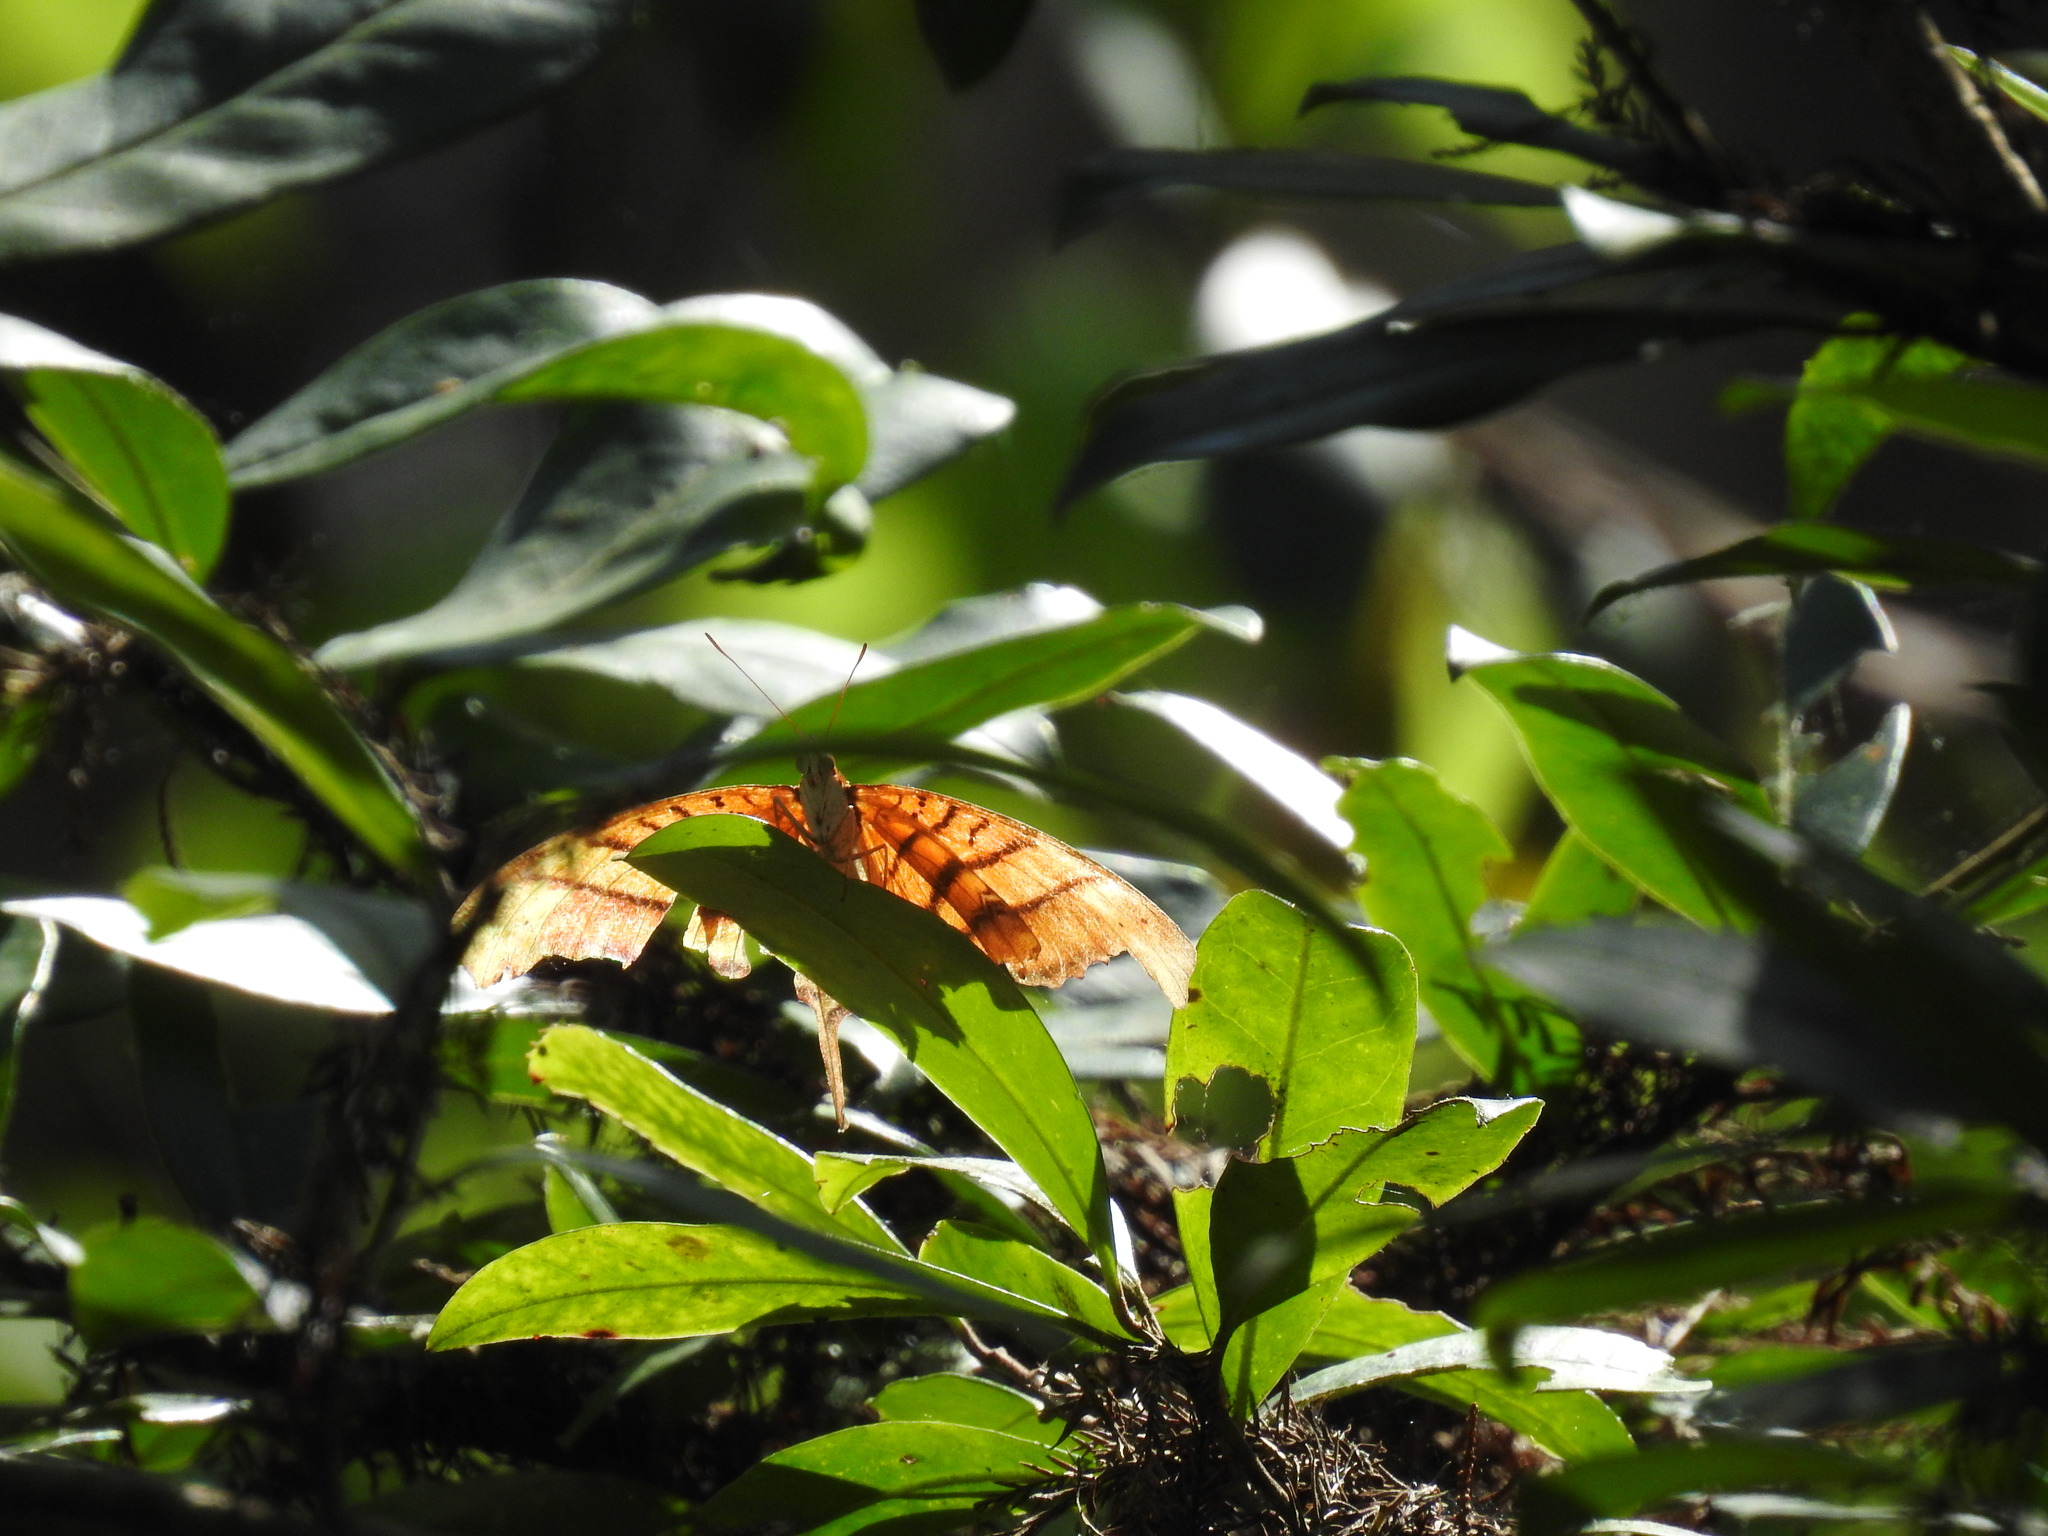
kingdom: Animalia
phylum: Arthropoda
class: Insecta
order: Lepidoptera
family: Nymphalidae
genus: Marpesia
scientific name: Marpesia petreus
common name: Red dagger wing
